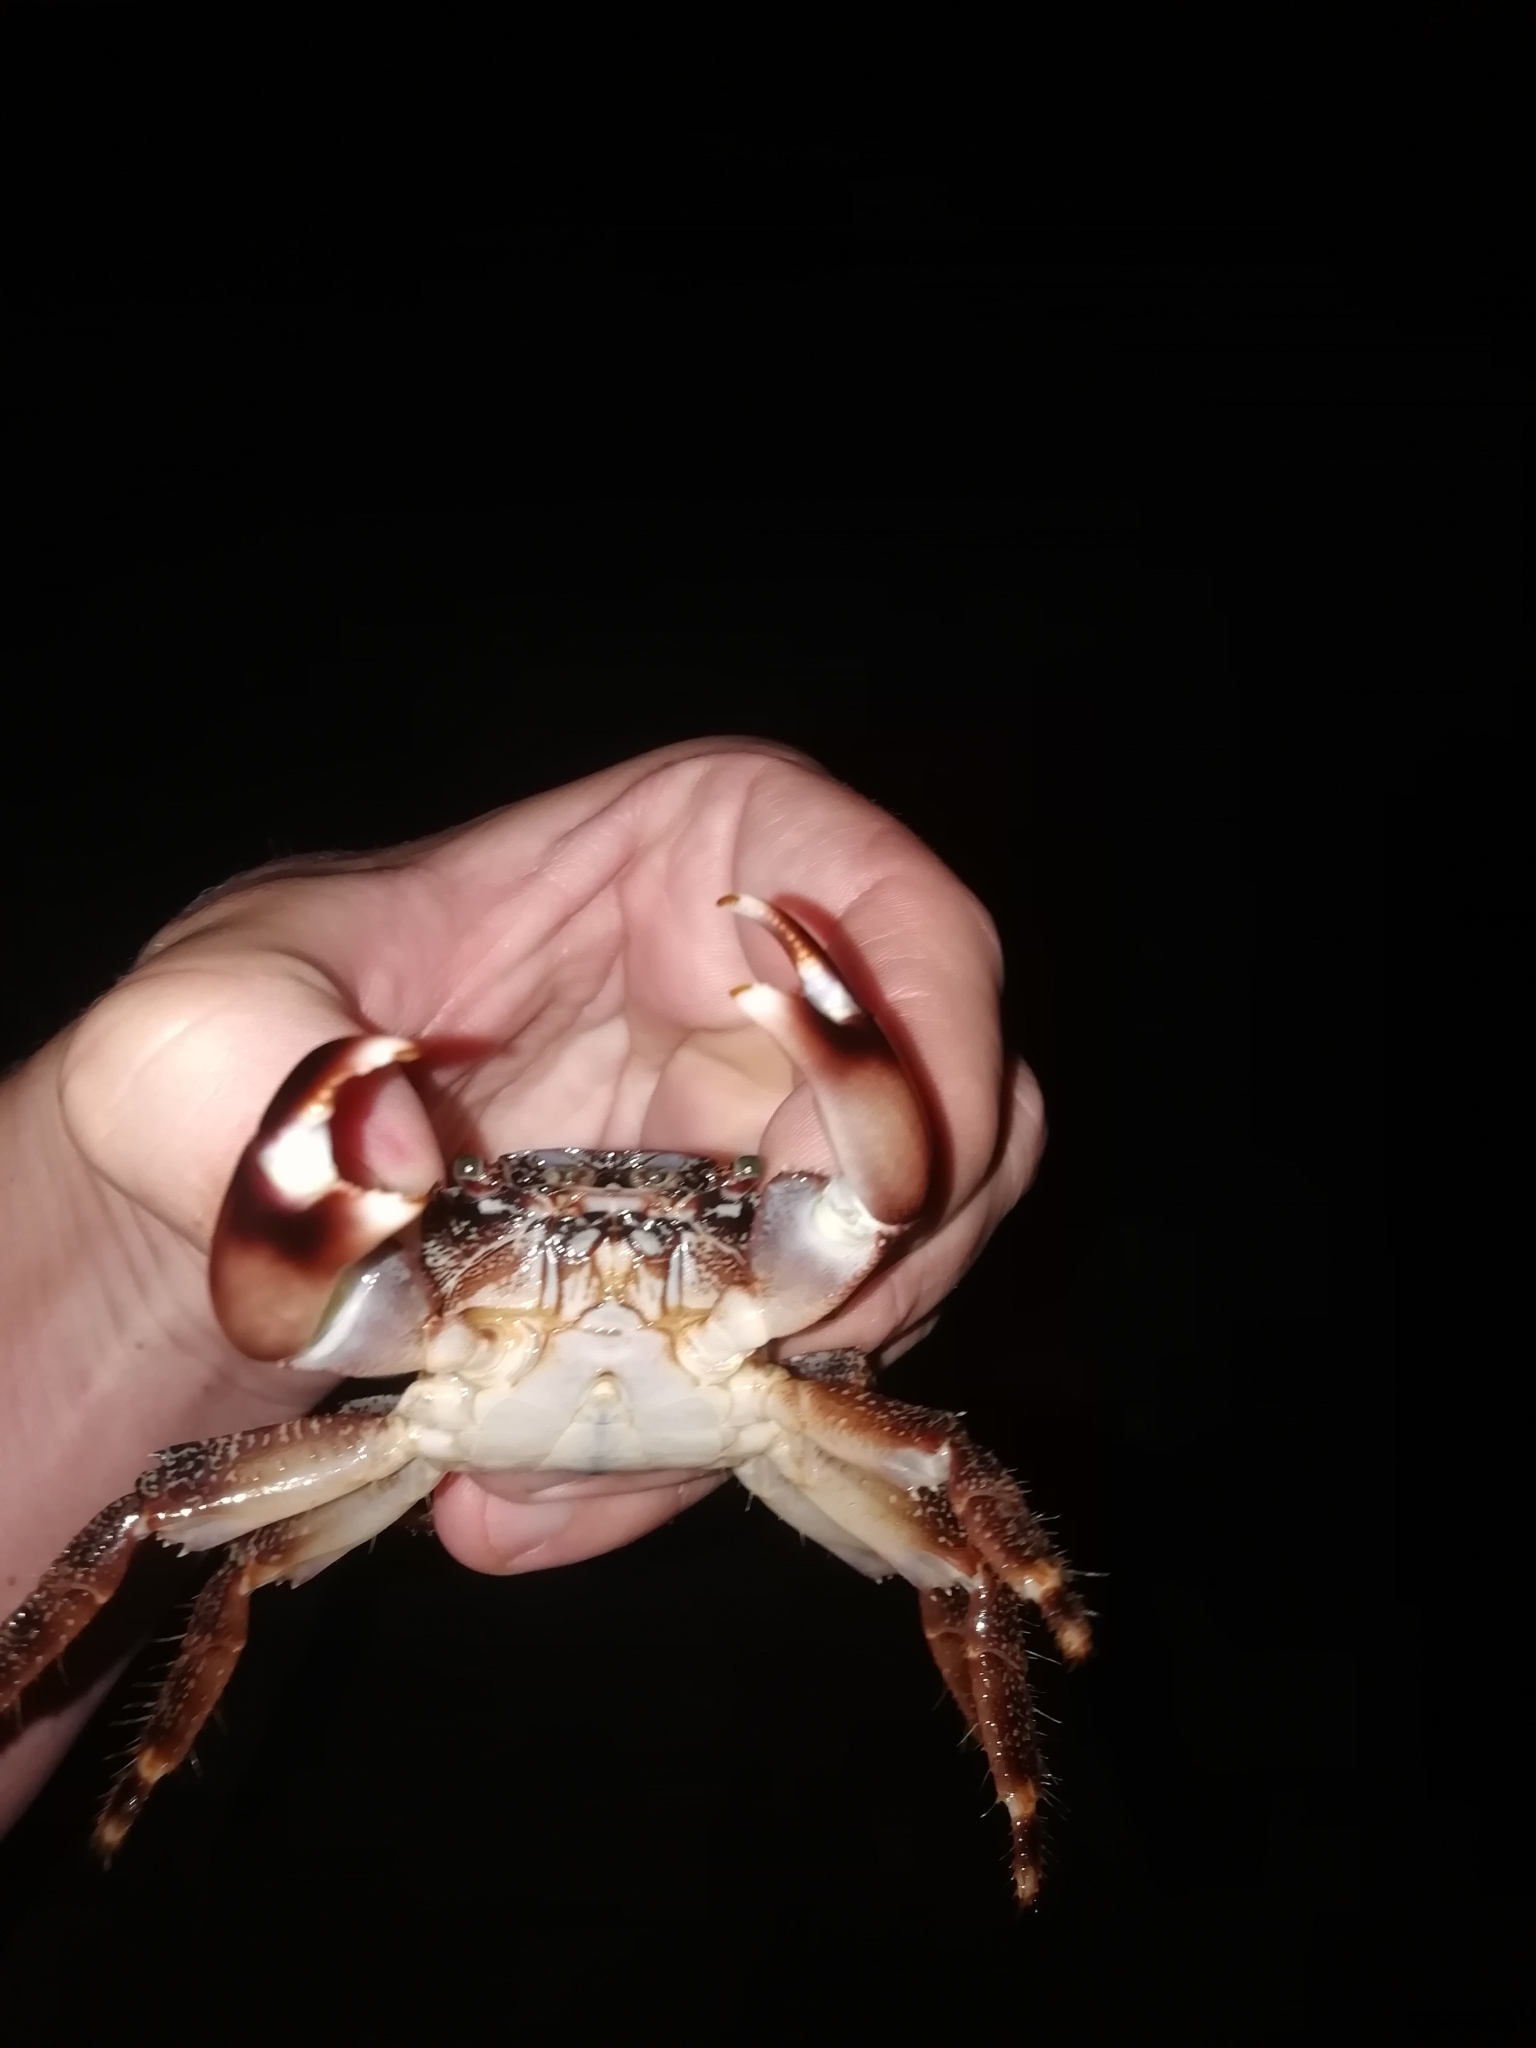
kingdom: Animalia
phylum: Arthropoda
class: Malacostraca
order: Decapoda
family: Grapsidae
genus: Pachygrapsus
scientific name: Pachygrapsus marmoratus
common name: Marbled rock crab
